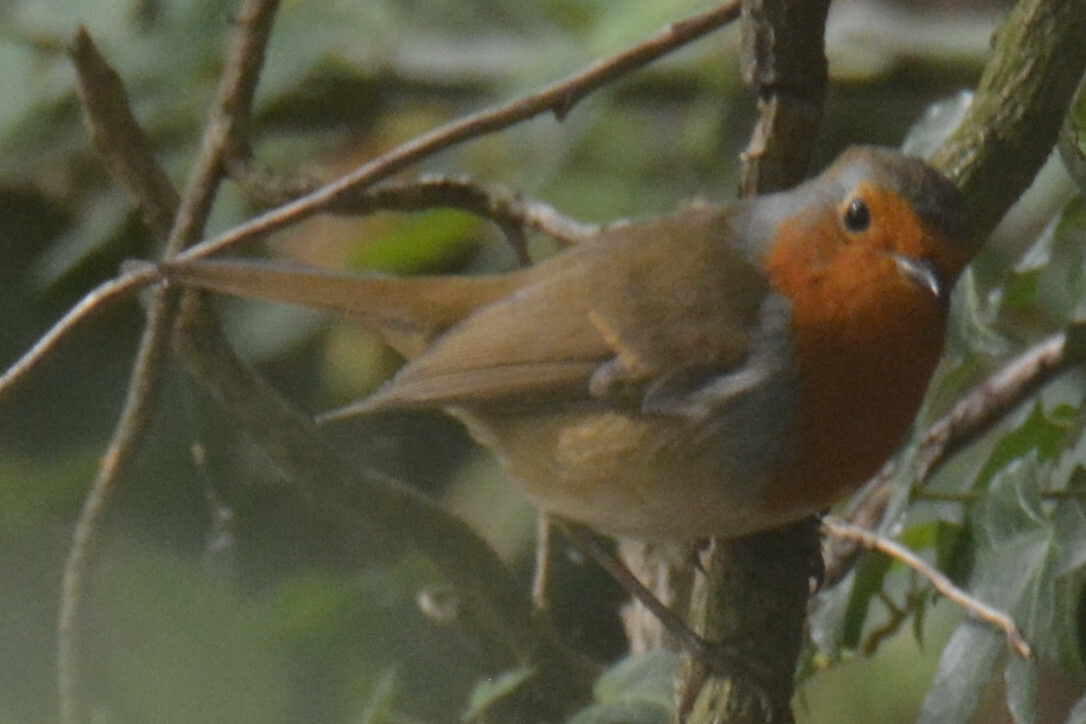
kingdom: Animalia
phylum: Chordata
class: Aves
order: Passeriformes
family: Muscicapidae
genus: Erithacus
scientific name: Erithacus rubecula
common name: European robin
